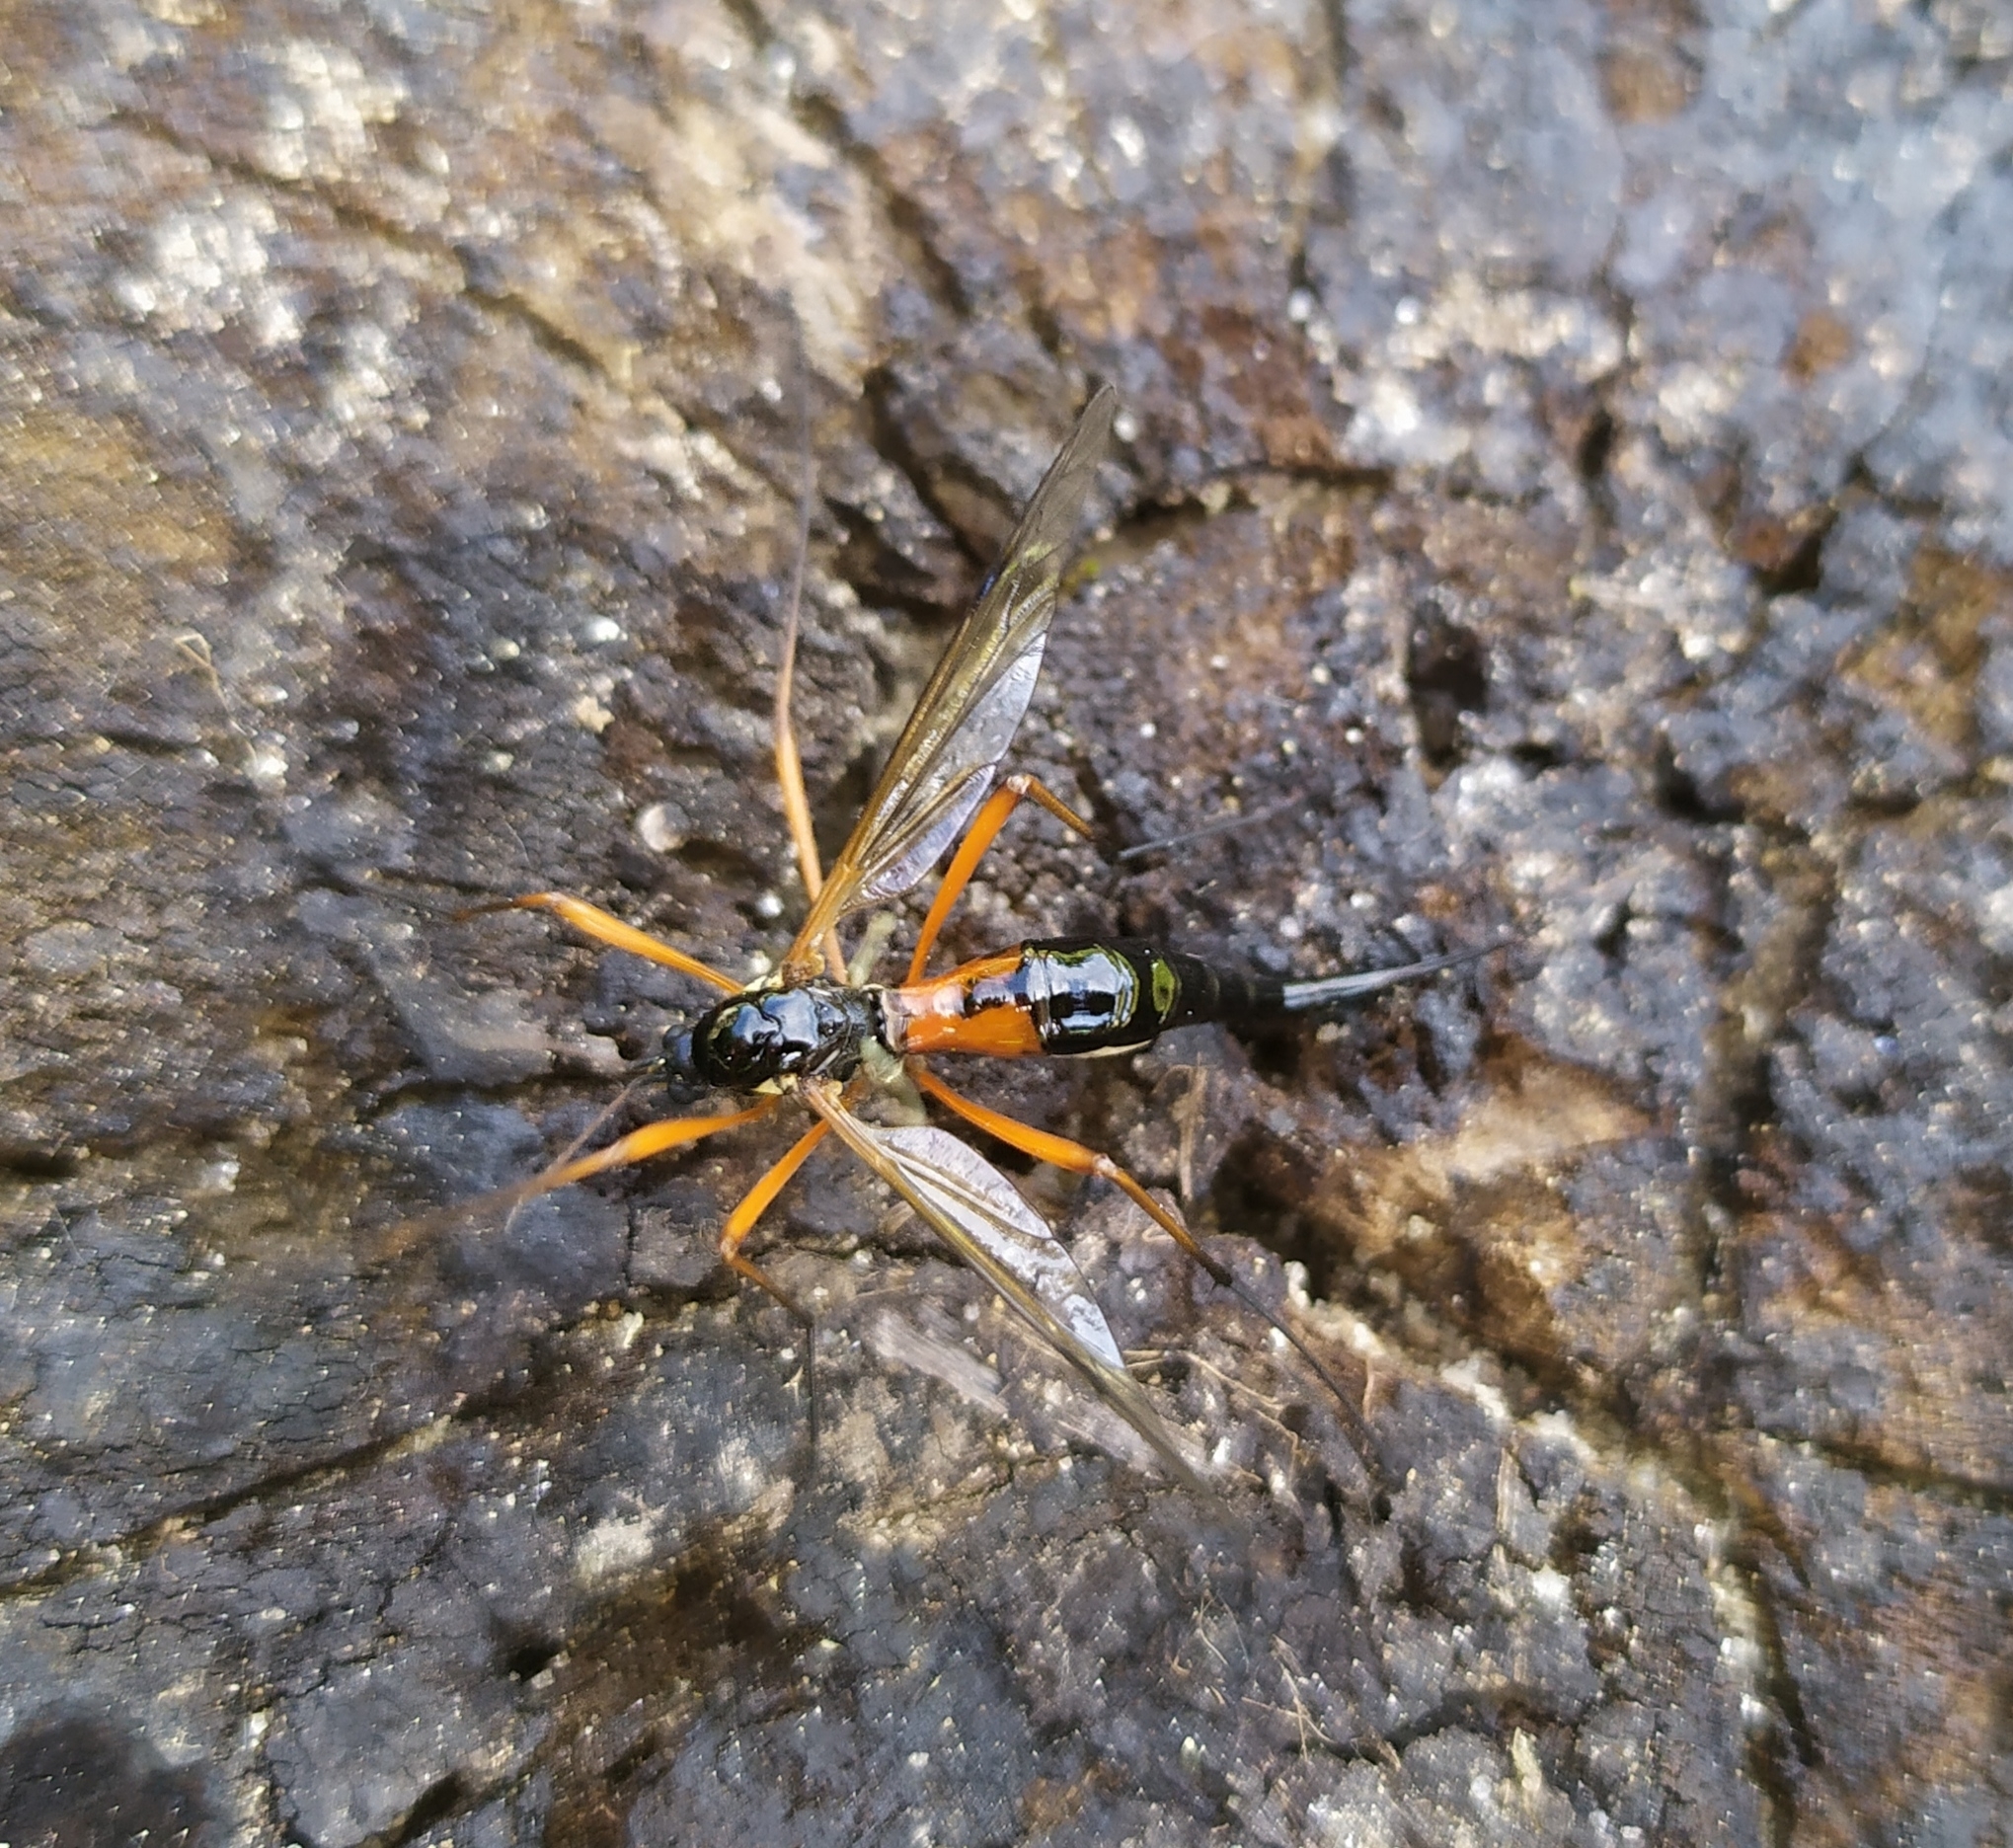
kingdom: Animalia
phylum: Arthropoda
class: Insecta
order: Diptera
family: Tipulidae
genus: Tanyptera
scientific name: Tanyptera atrata
